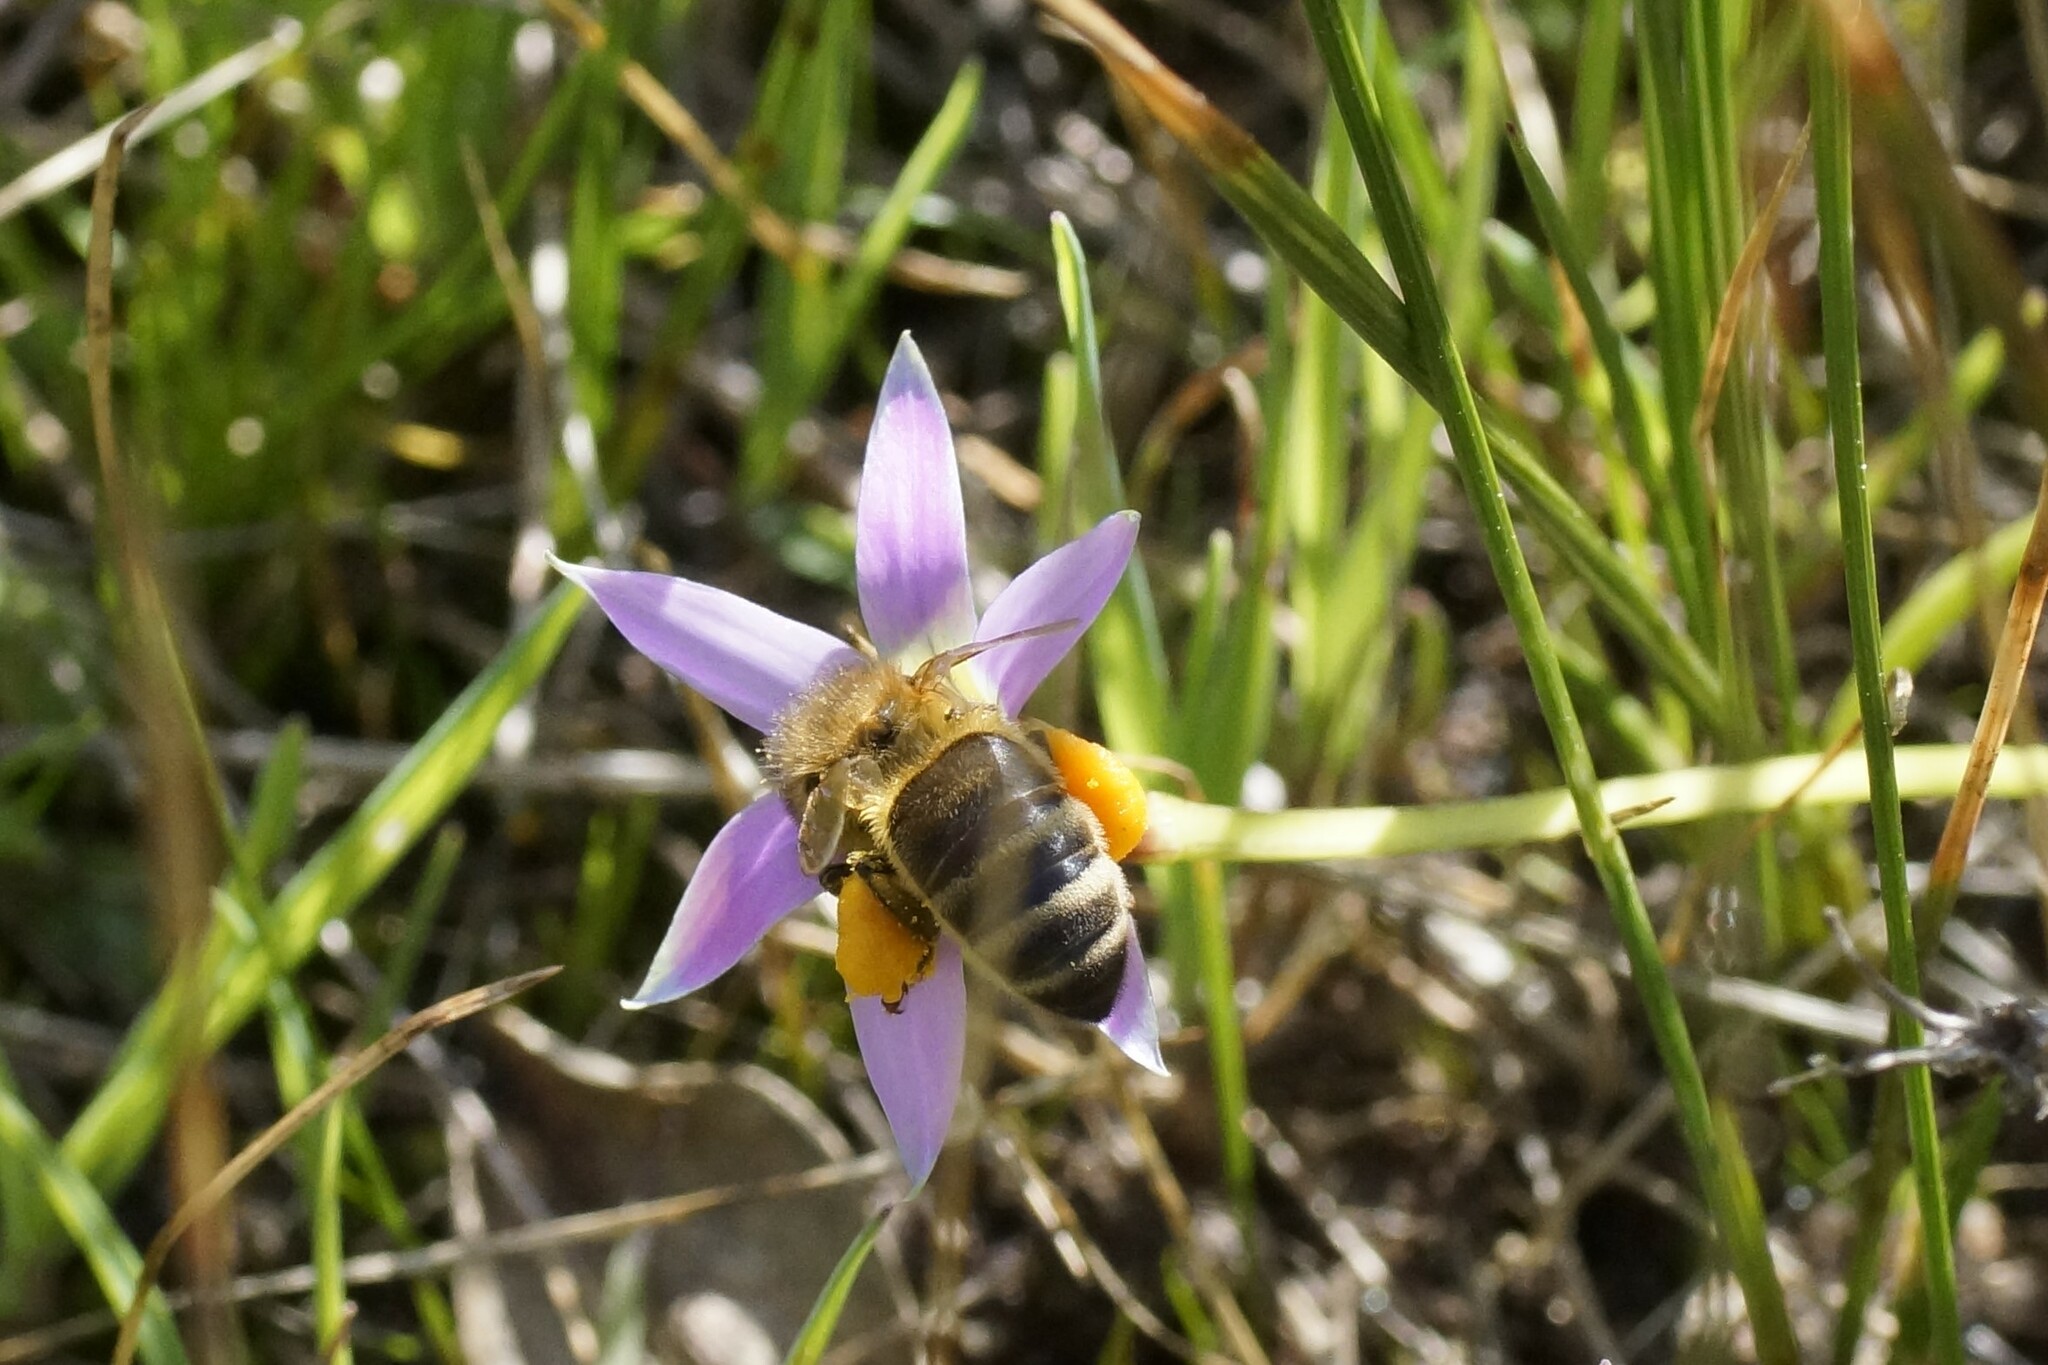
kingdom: Animalia
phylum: Arthropoda
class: Insecta
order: Hymenoptera
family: Apidae
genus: Apis
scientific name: Apis mellifera
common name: Honey bee
